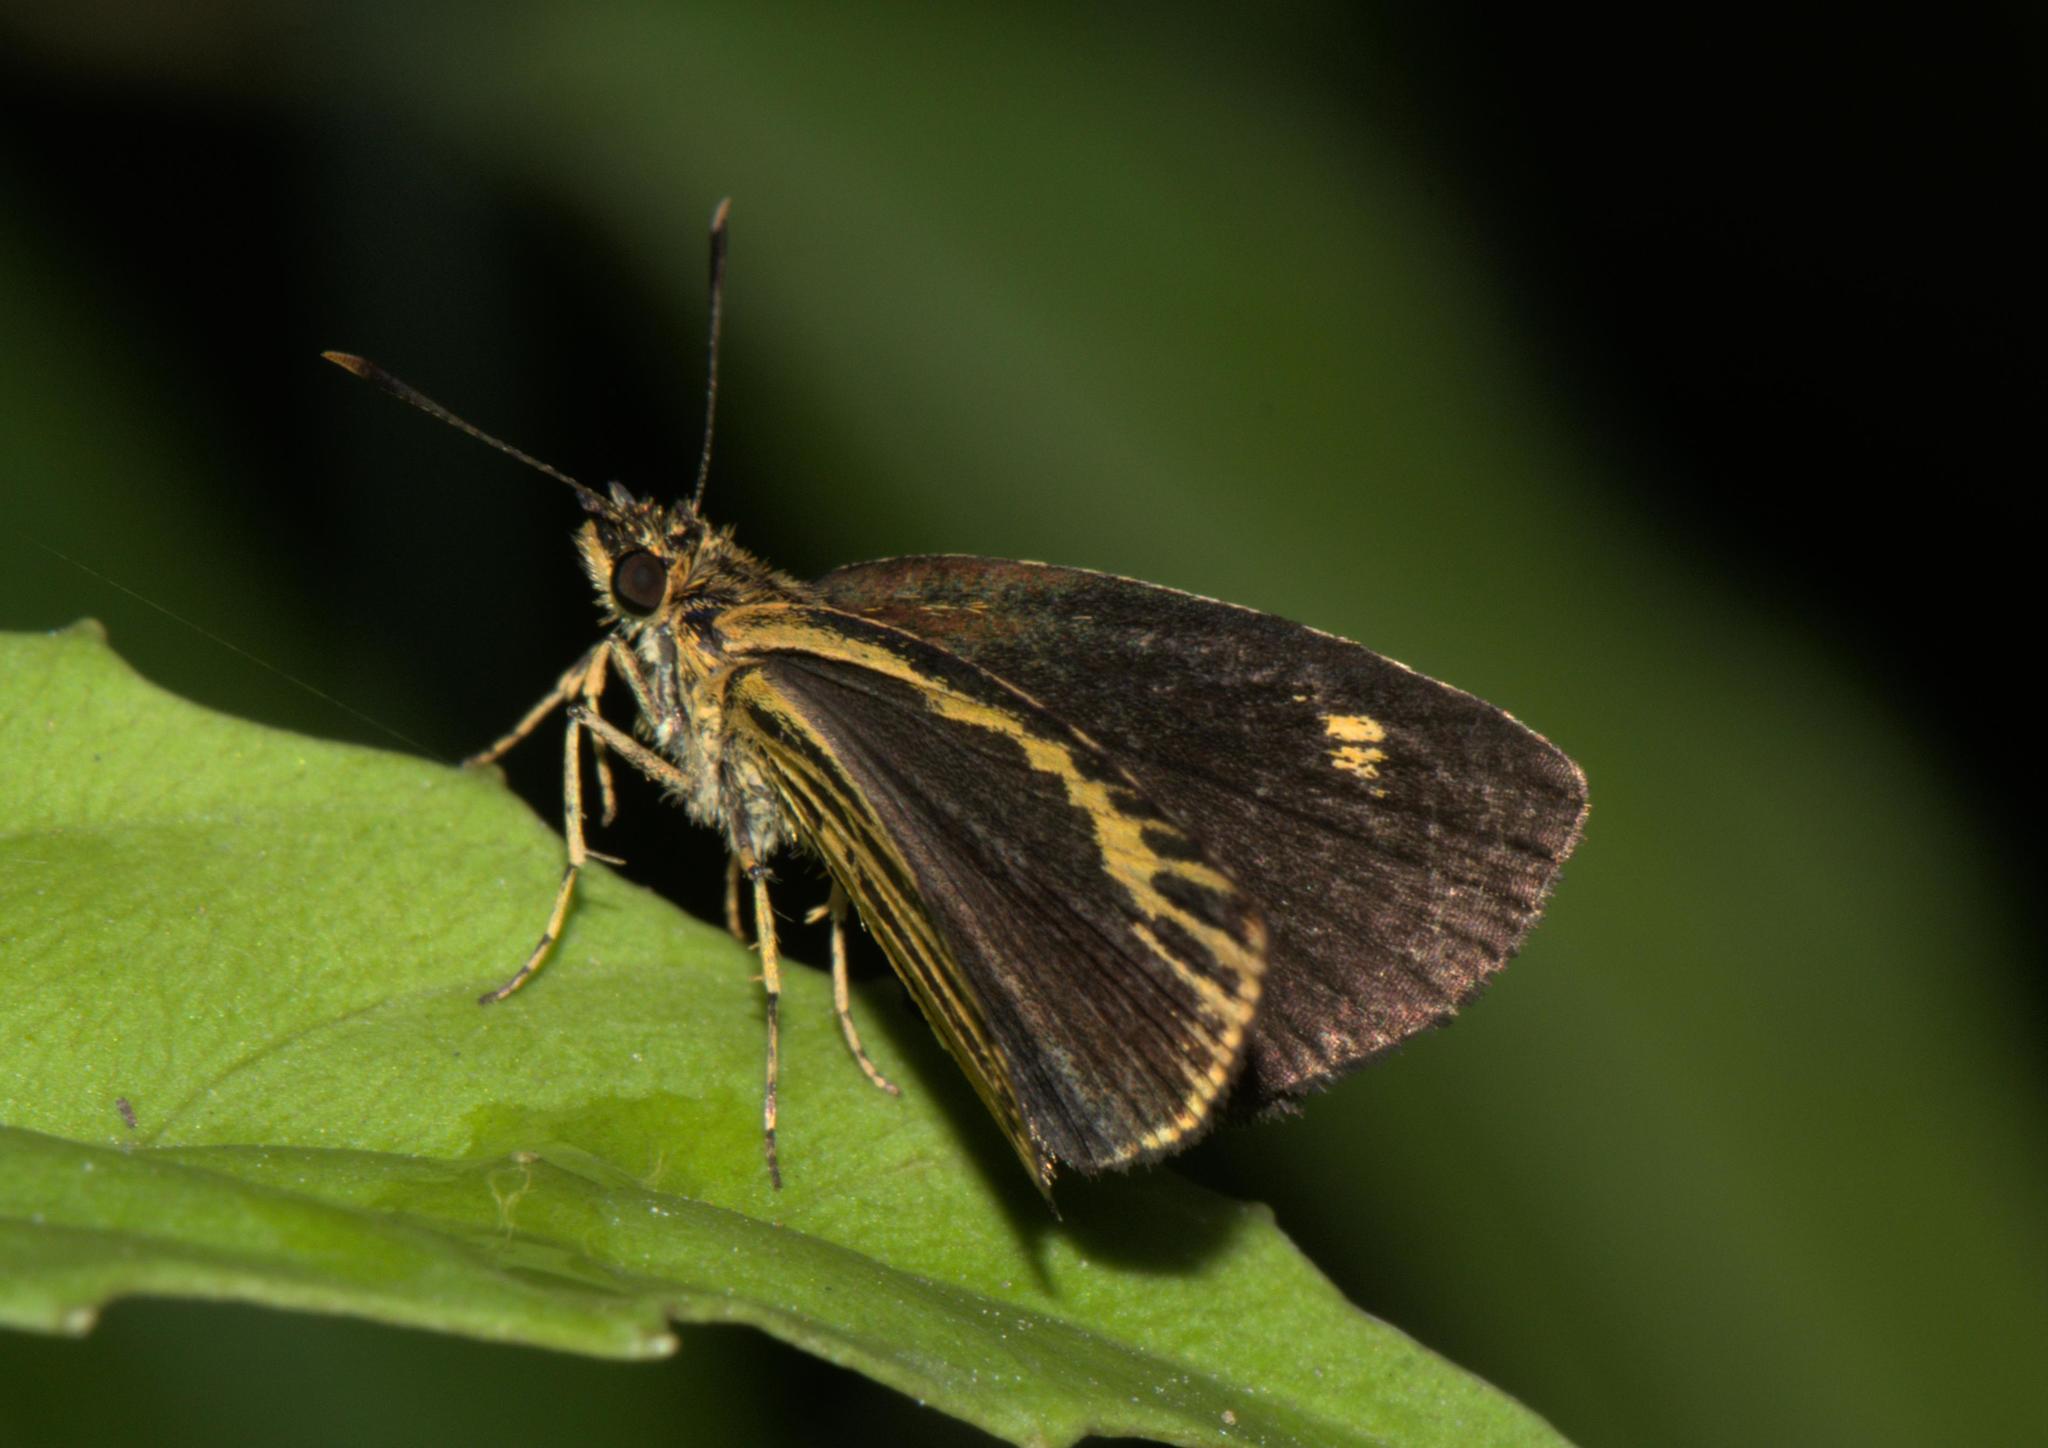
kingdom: Animalia
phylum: Arthropoda
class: Insecta
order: Lepidoptera
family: Hesperiidae
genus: Ampittia
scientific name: Ampittia subvittatus
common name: Tiger hopper
